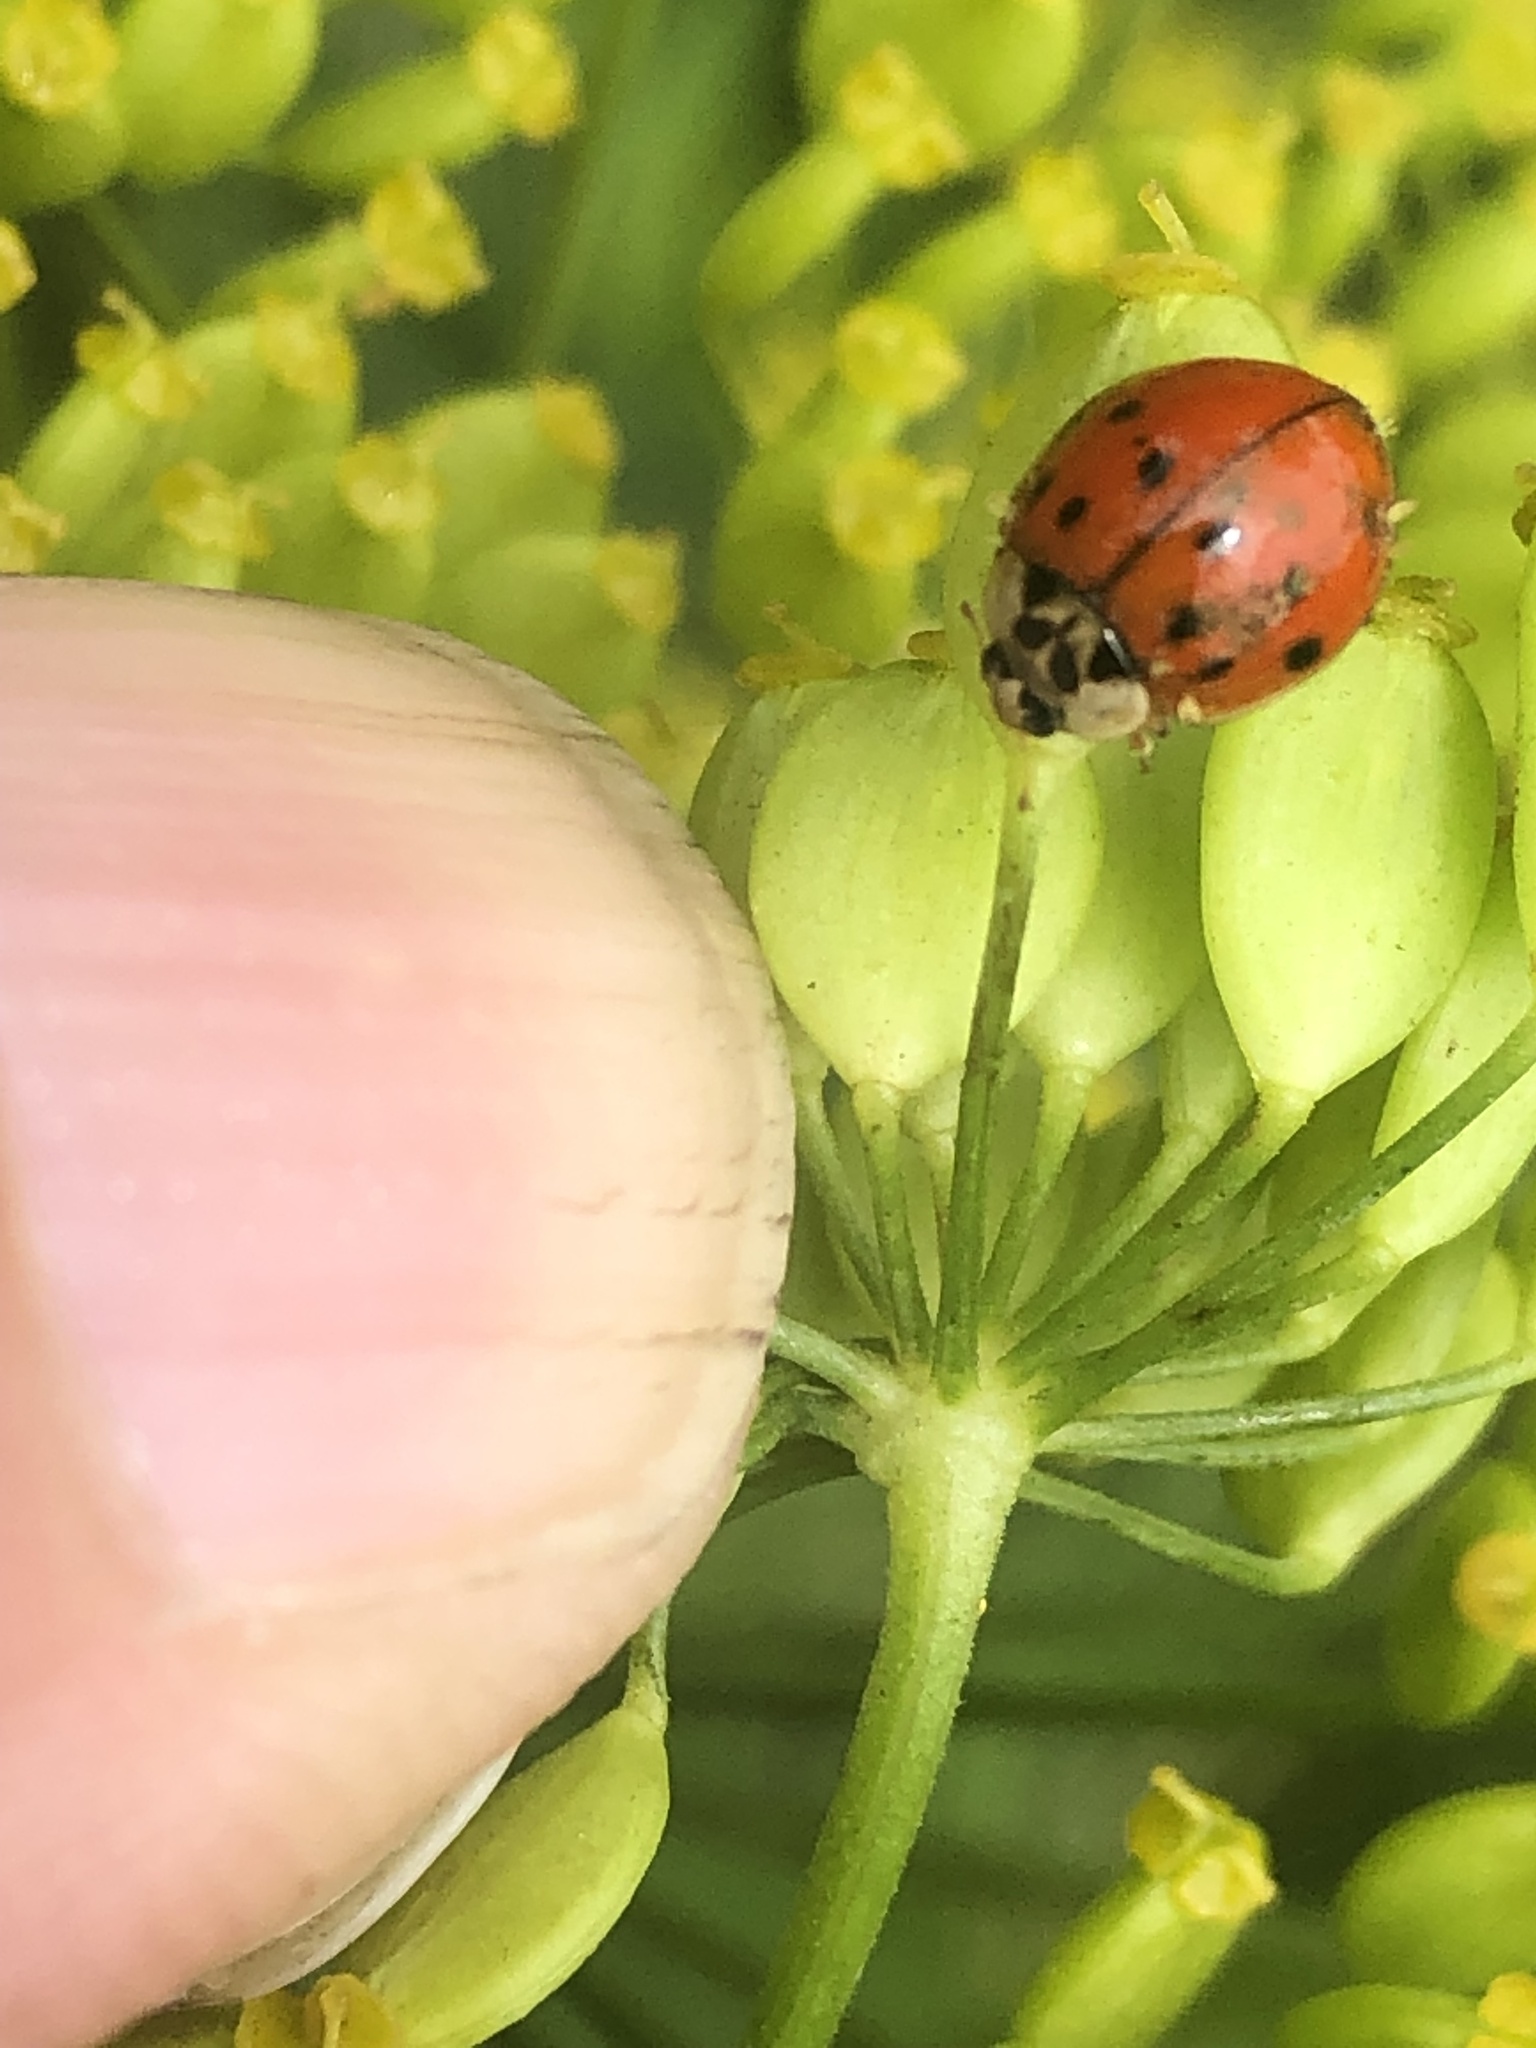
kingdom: Animalia
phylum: Arthropoda
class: Insecta
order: Coleoptera
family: Coccinellidae
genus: Harmonia
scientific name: Harmonia axyridis
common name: Harlequin ladybird
